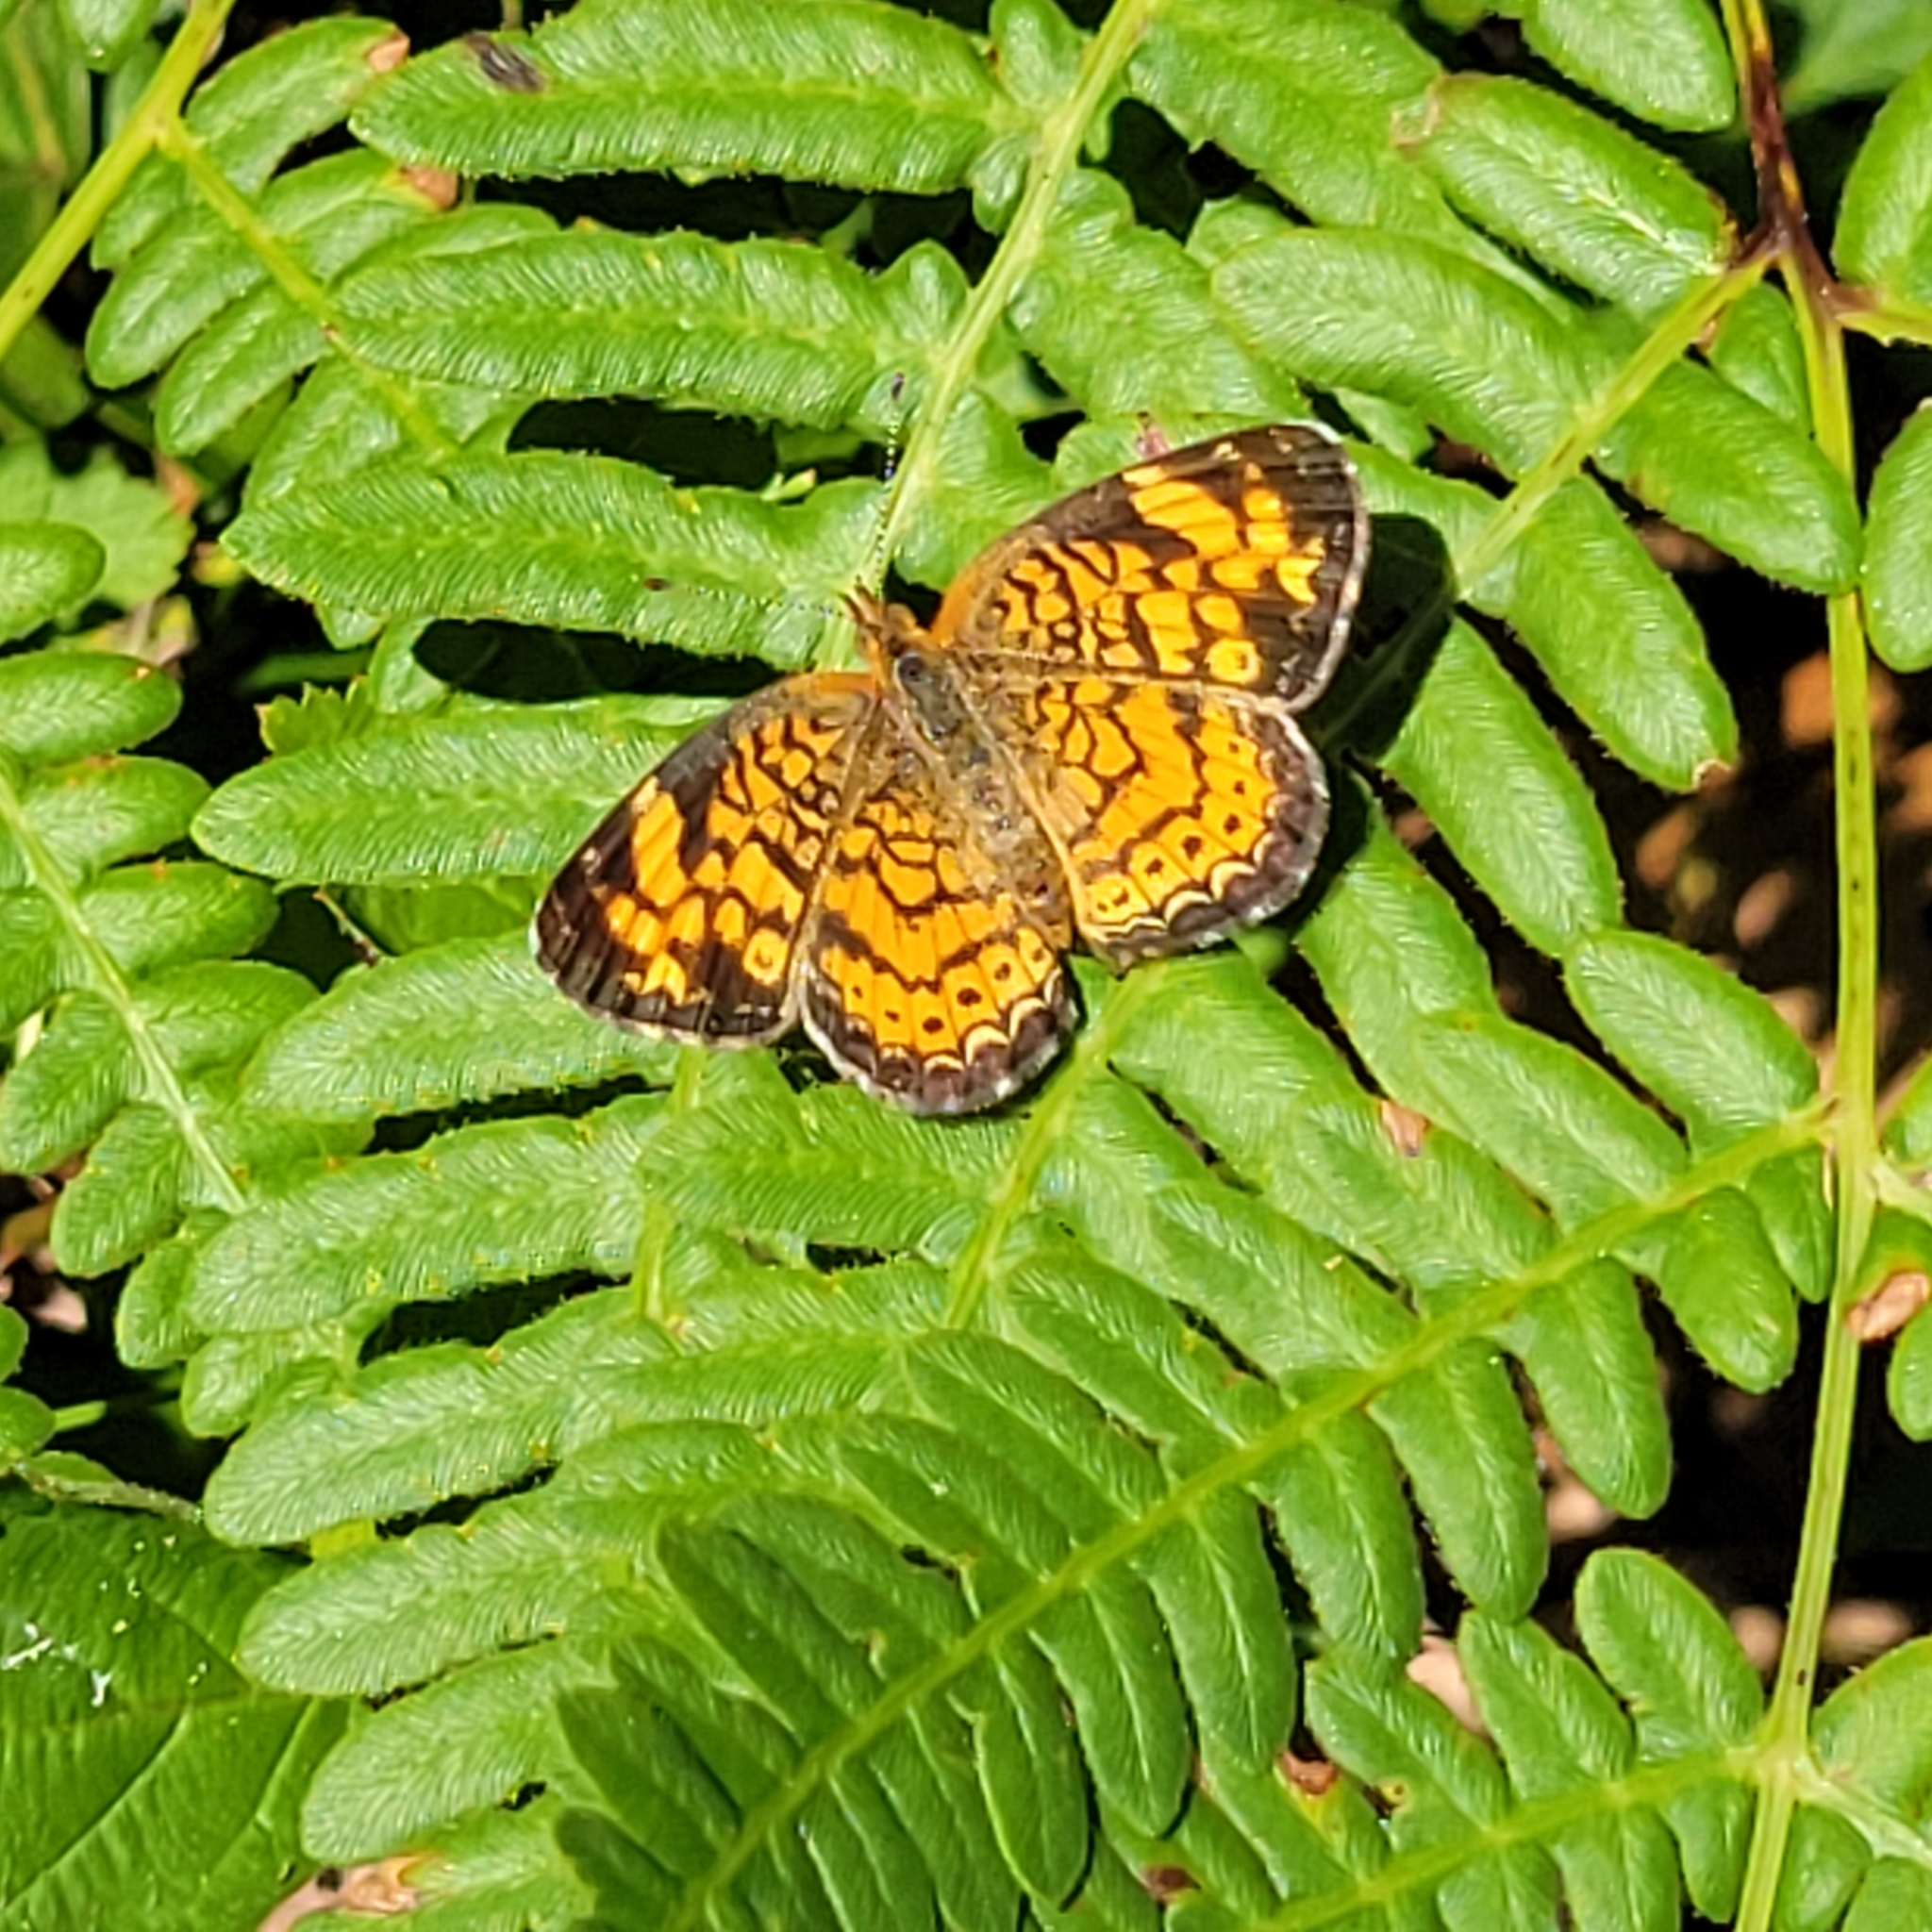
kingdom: Animalia
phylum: Arthropoda
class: Insecta
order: Lepidoptera
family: Nymphalidae
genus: Phyciodes
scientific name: Phyciodes tharos
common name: Pearl crescent
